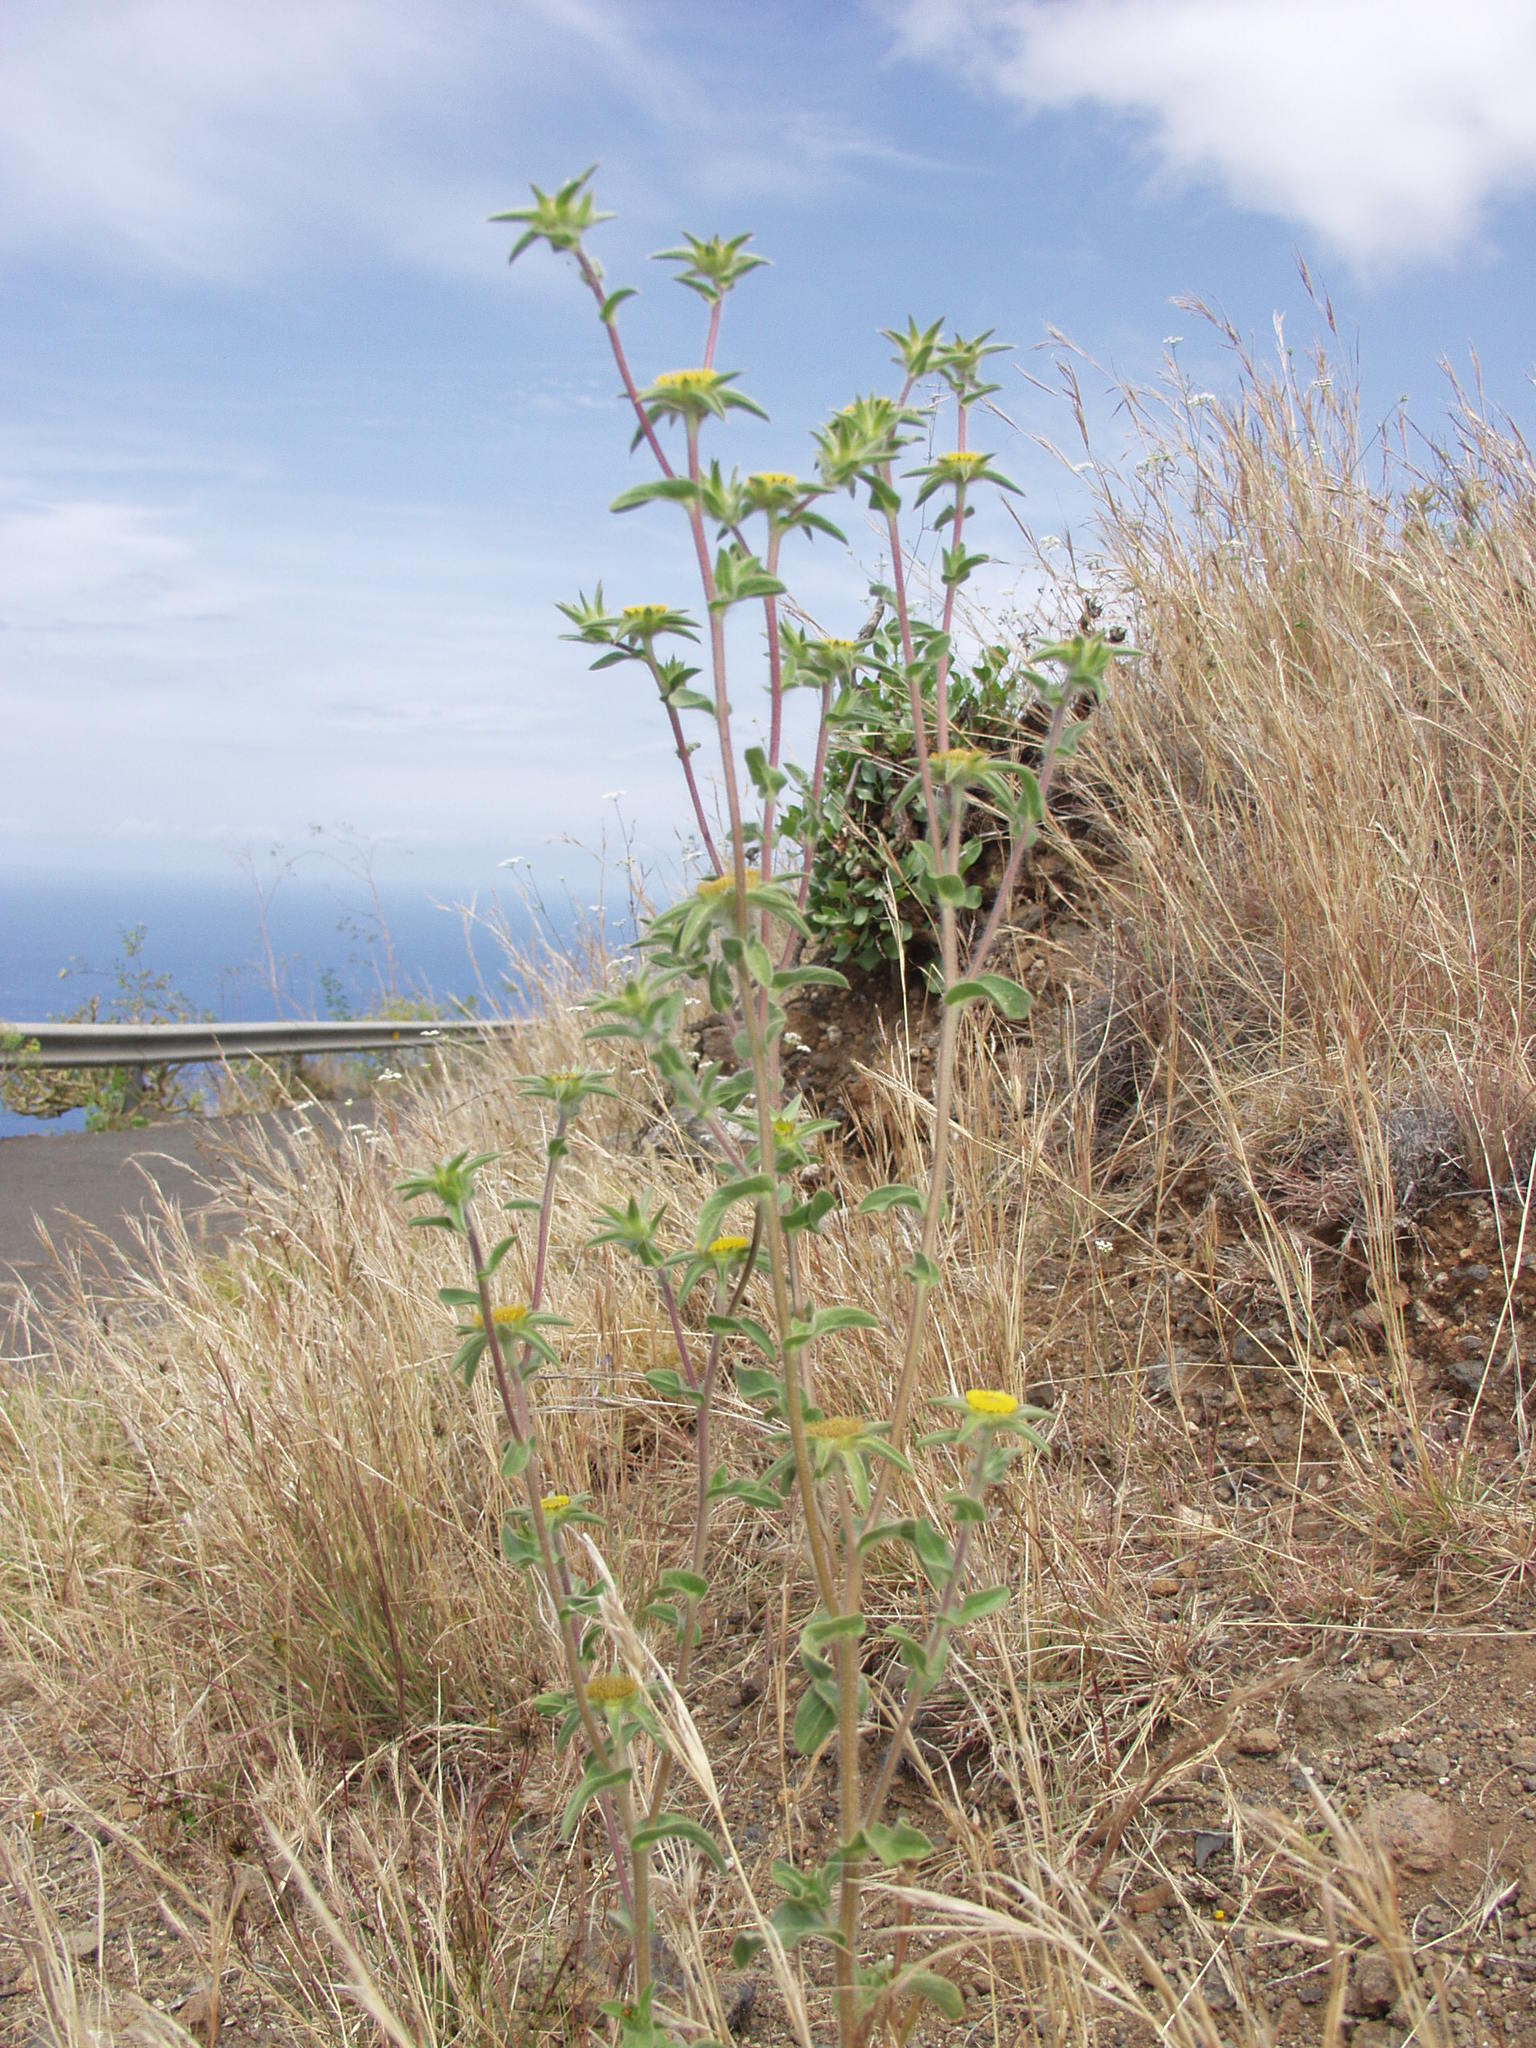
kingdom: Plantae
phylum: Tracheophyta
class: Magnoliopsida
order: Asterales
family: Asteraceae
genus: Pallenis
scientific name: Pallenis spinosa
